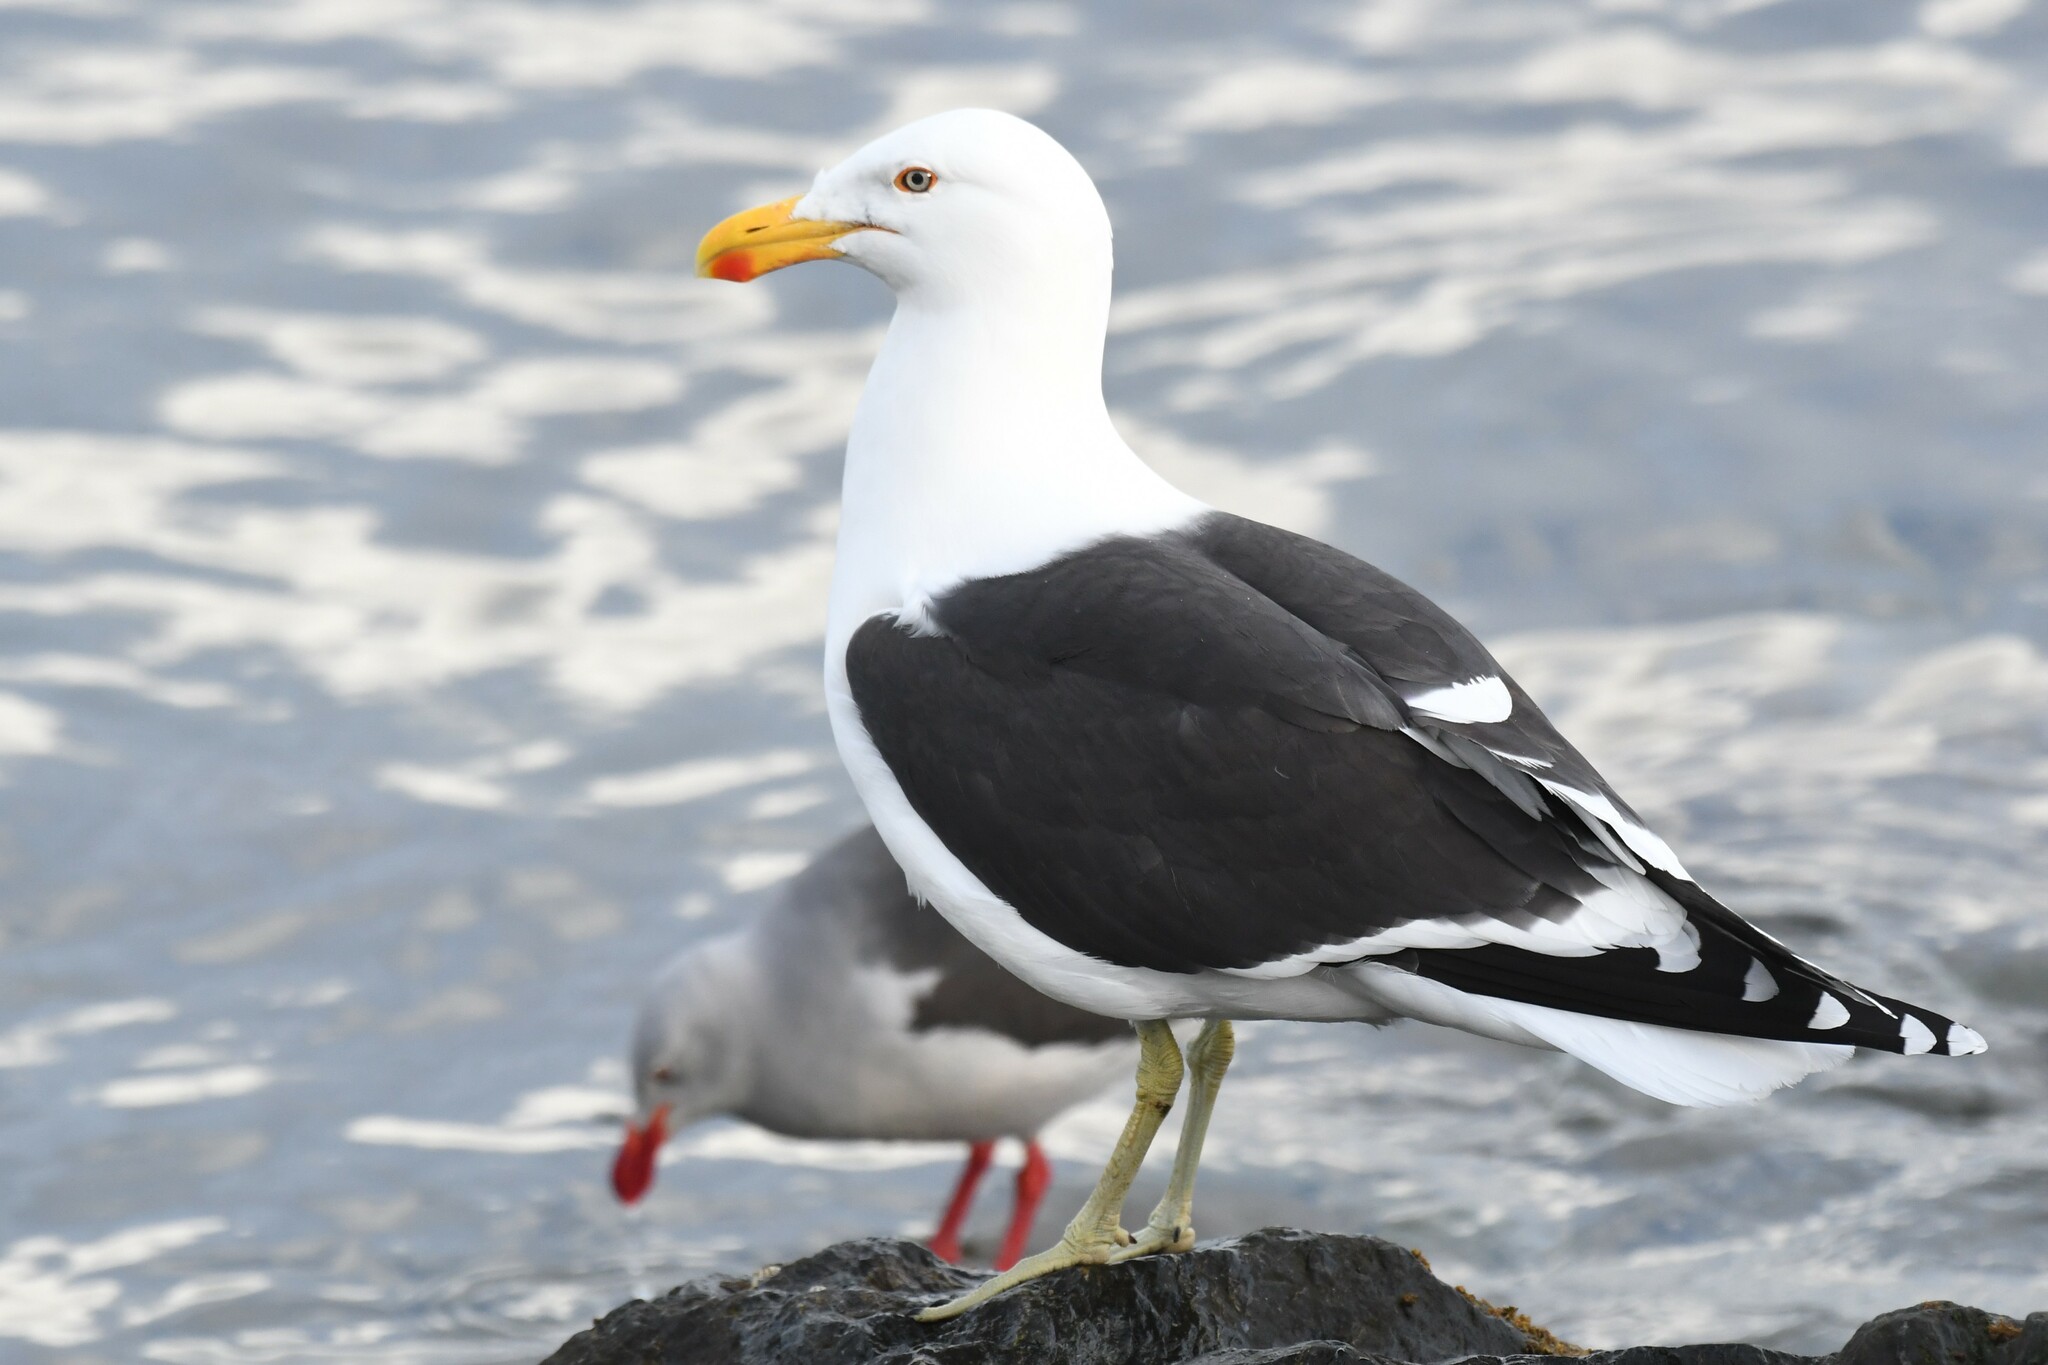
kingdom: Animalia
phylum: Chordata
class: Aves
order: Charadriiformes
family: Laridae
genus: Larus
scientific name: Larus dominicanus
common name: Kelp gull
